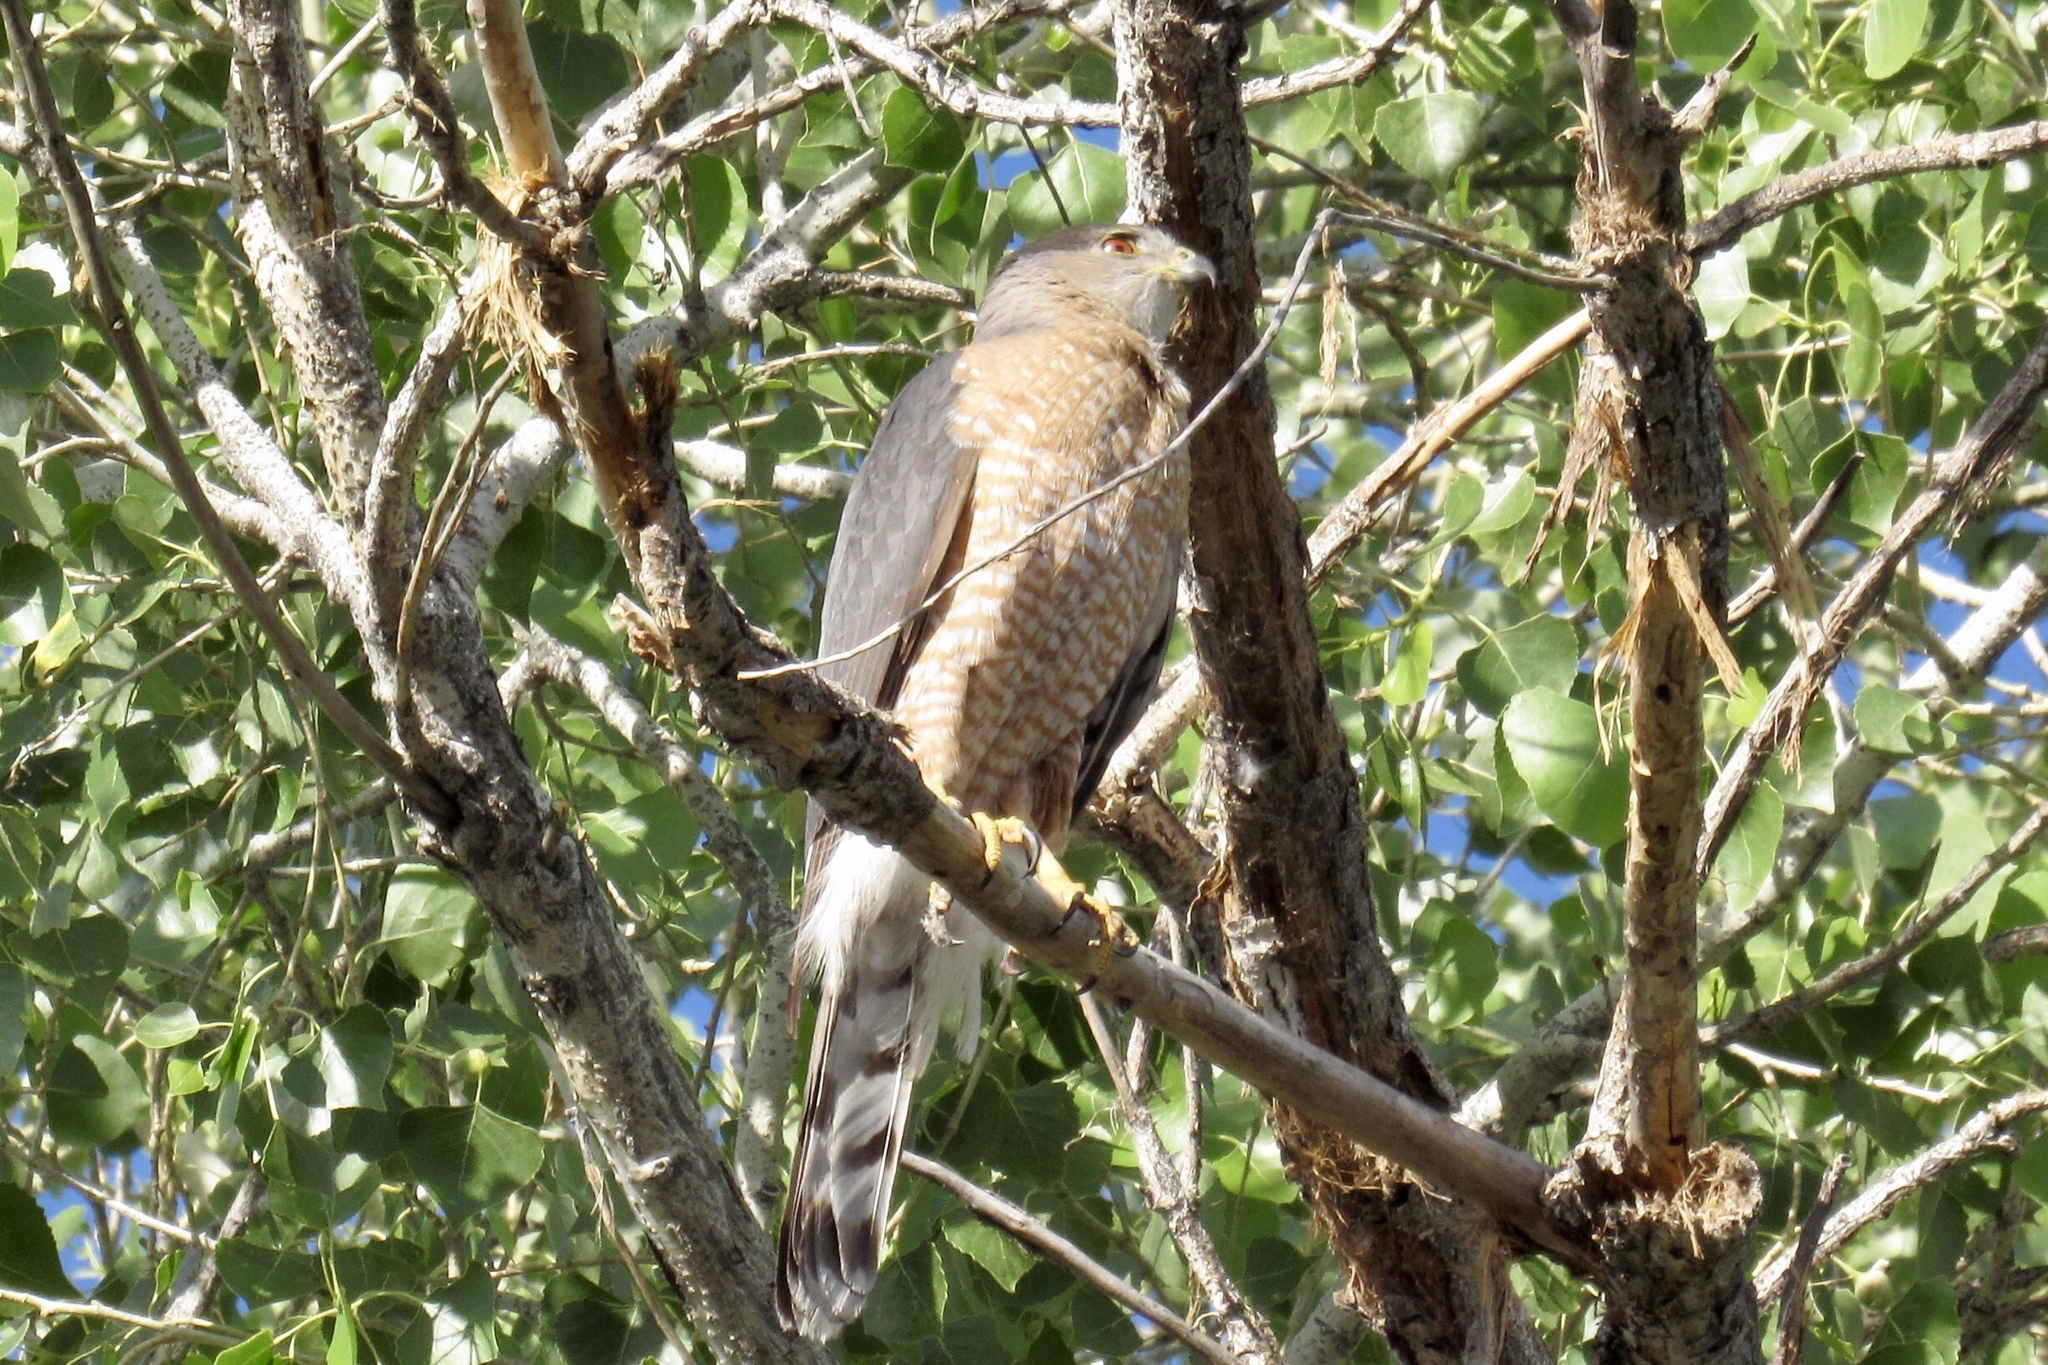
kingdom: Animalia
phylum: Chordata
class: Aves
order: Accipitriformes
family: Accipitridae
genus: Accipiter
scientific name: Accipiter cooperii
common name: Cooper's hawk
